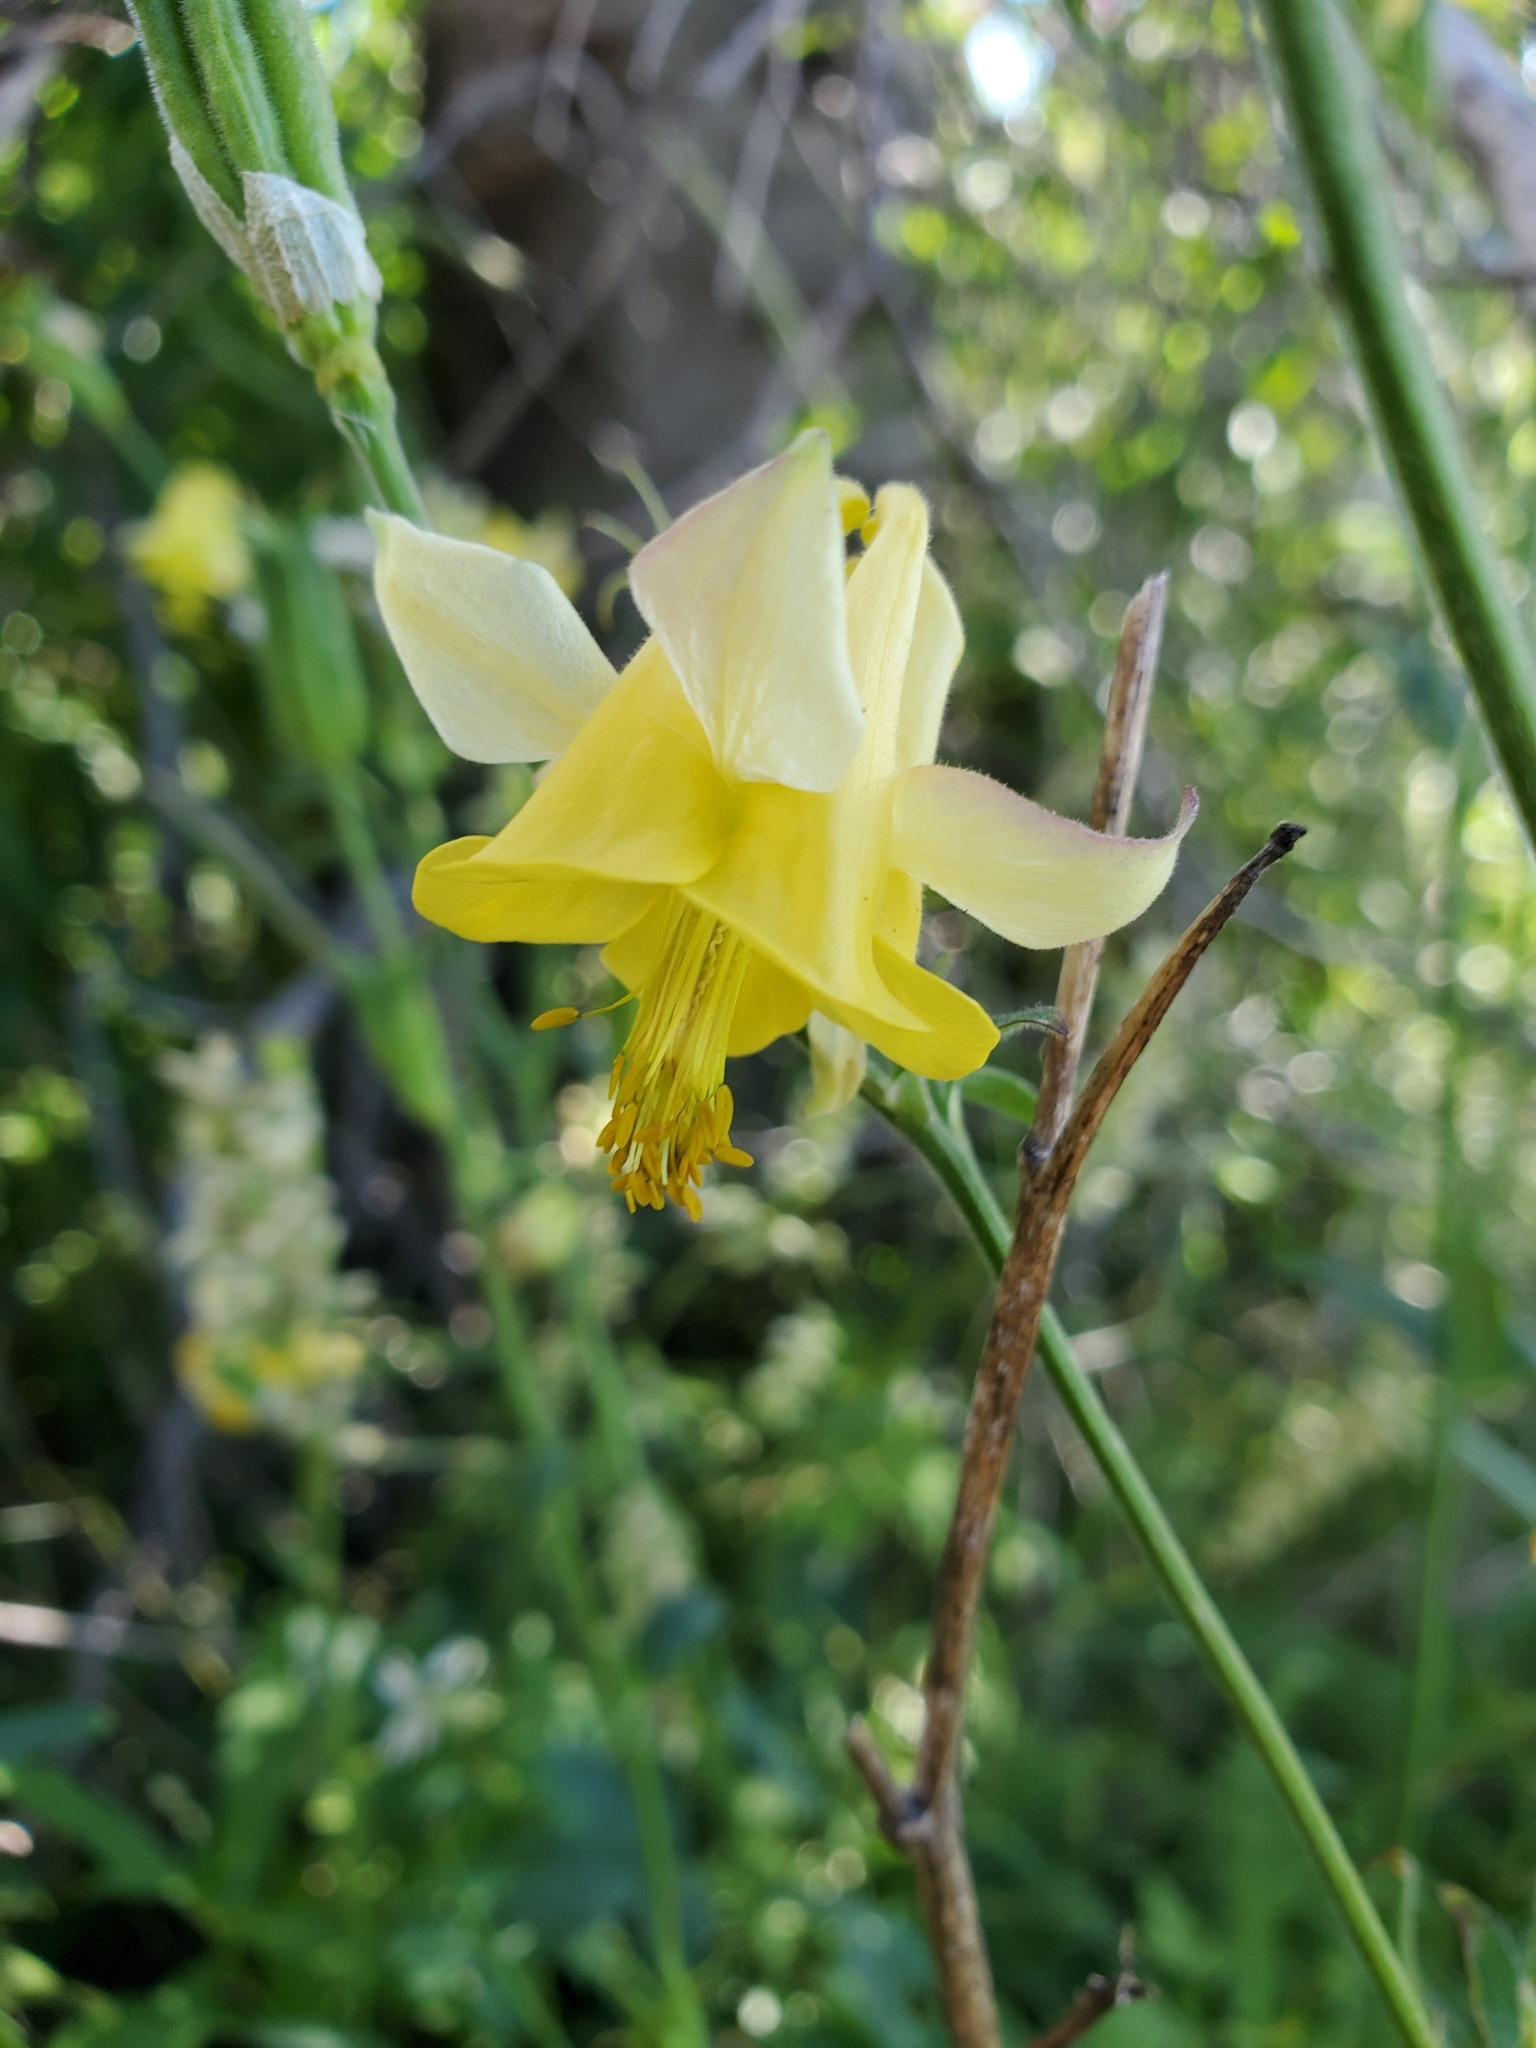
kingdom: Plantae
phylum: Tracheophyta
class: Magnoliopsida
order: Ranunculales
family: Ranunculaceae
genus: Aquilegia
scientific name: Aquilegia flavescens
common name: Yellow columbine
